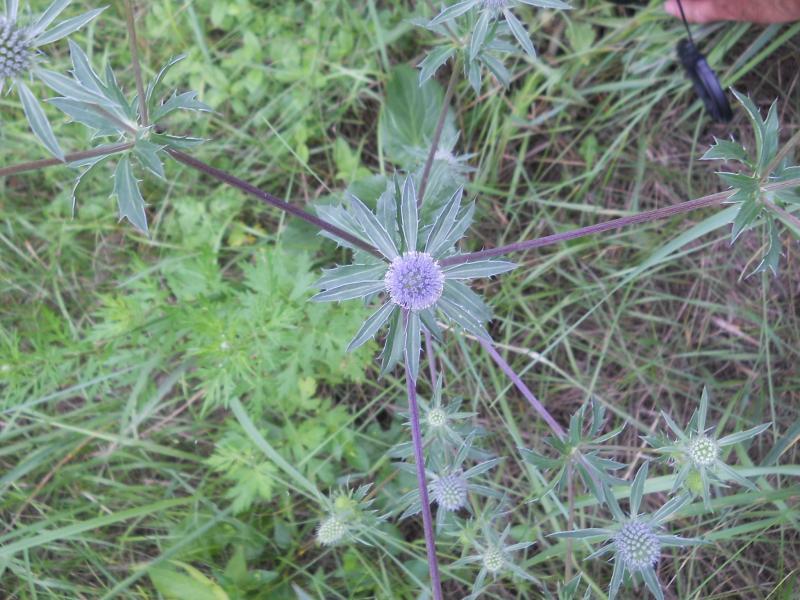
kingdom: Plantae
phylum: Tracheophyta
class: Magnoliopsida
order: Apiales
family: Apiaceae
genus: Eryngium
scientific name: Eryngium planum
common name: Blue eryngo
